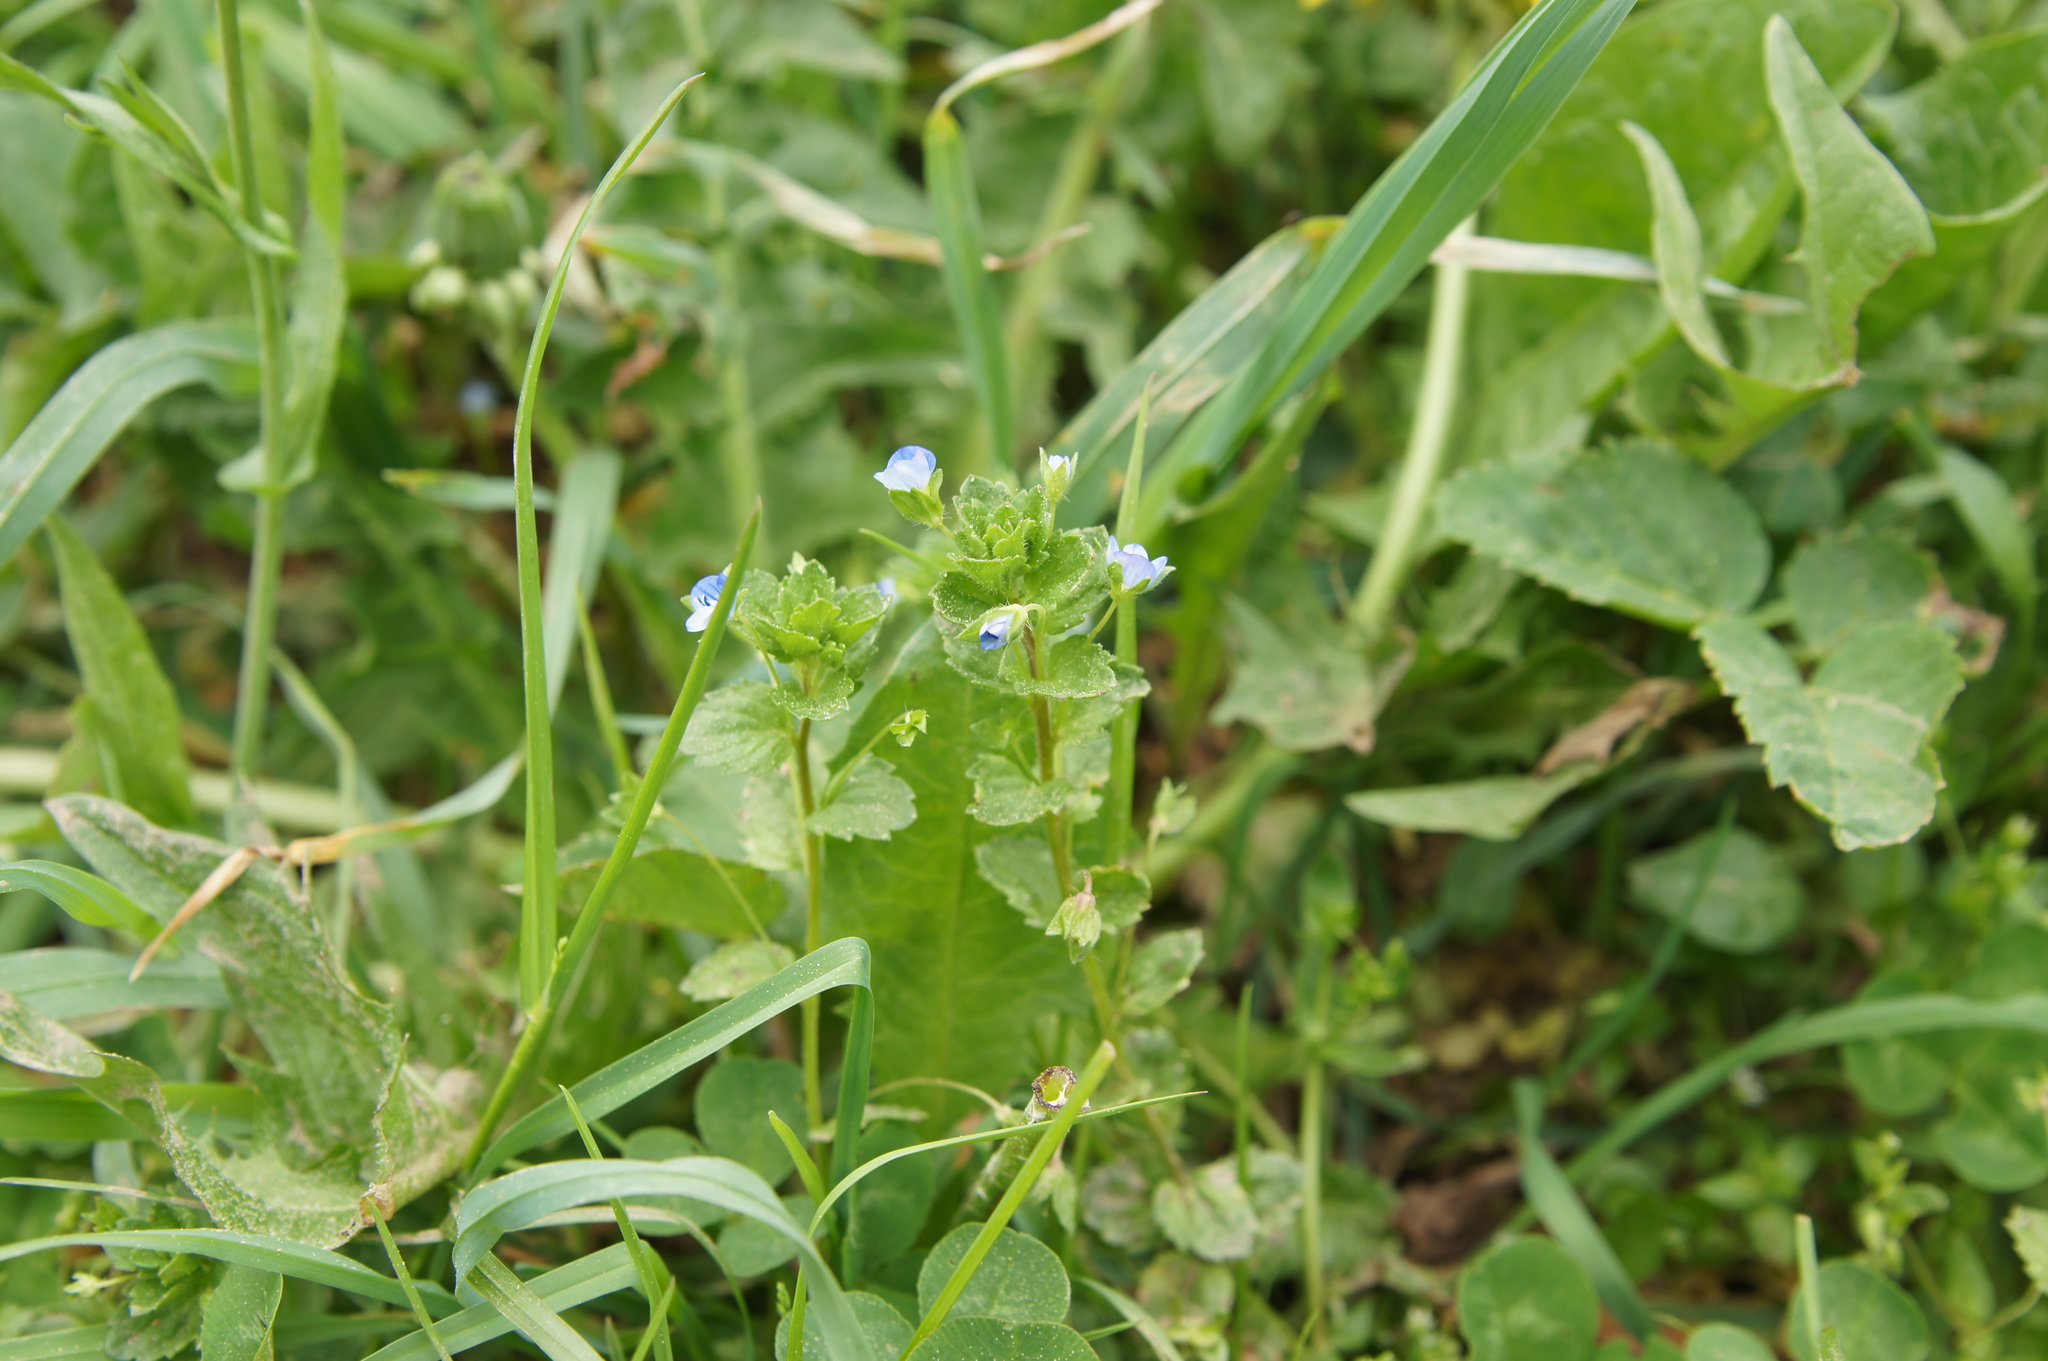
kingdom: Plantae
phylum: Tracheophyta
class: Magnoliopsida
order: Lamiales
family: Plantaginaceae
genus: Veronica
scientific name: Veronica persica
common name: Common field-speedwell
